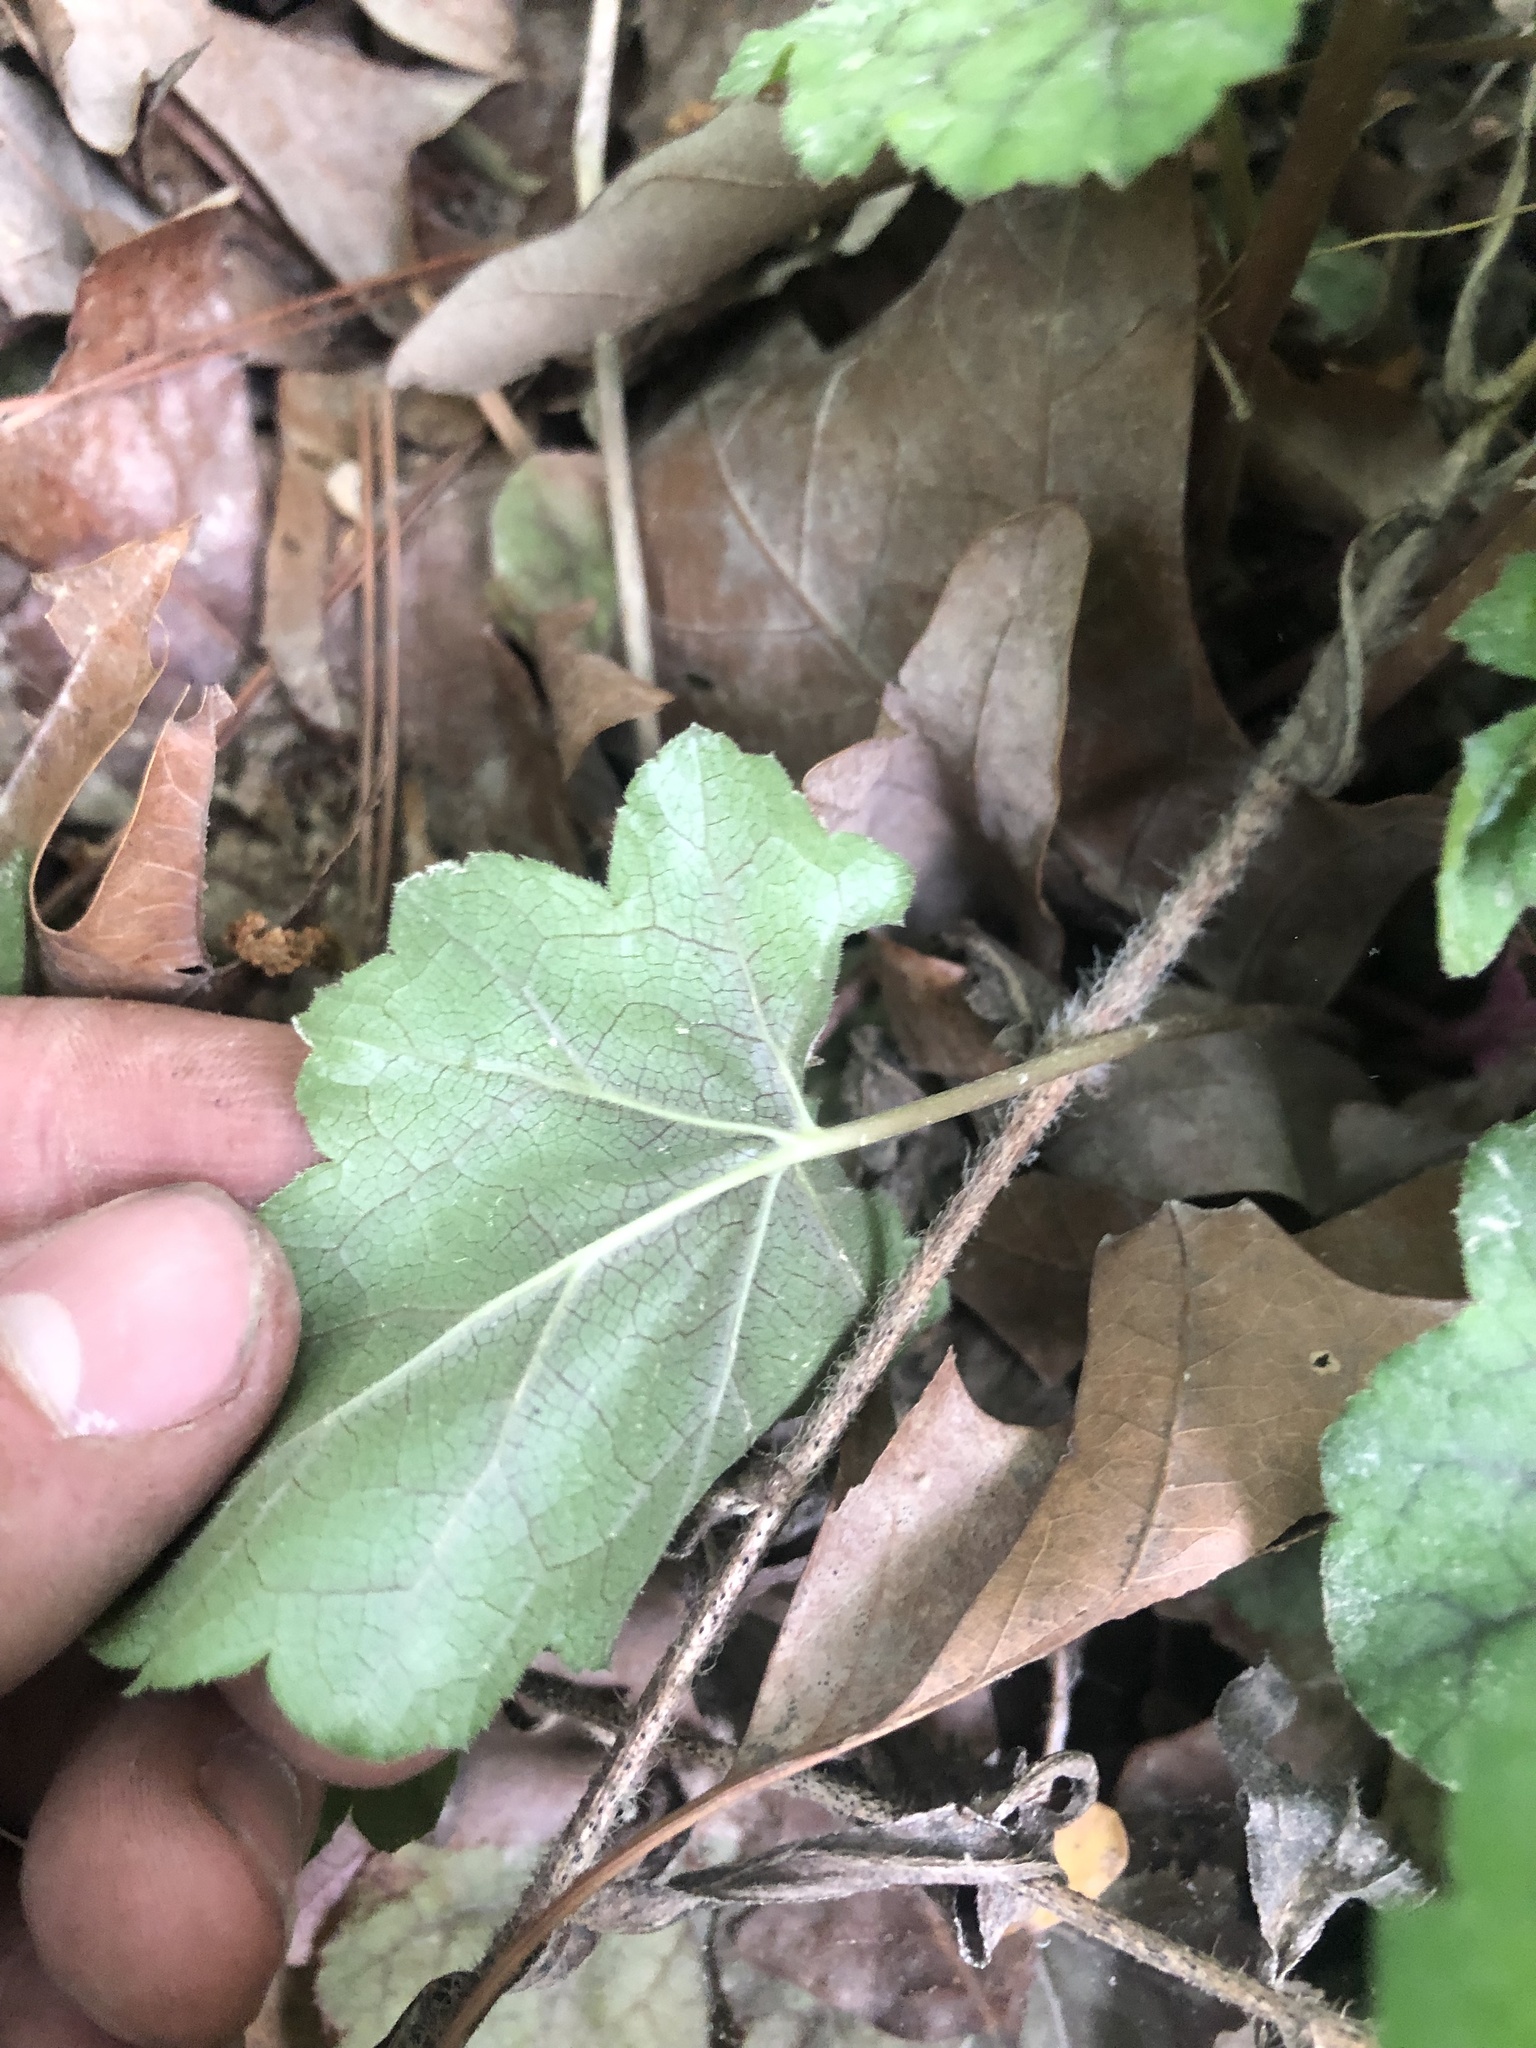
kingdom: Plantae
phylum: Tracheophyta
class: Magnoliopsida
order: Saxifragales
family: Saxifragaceae
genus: Heuchera
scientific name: Heuchera caroliniana
